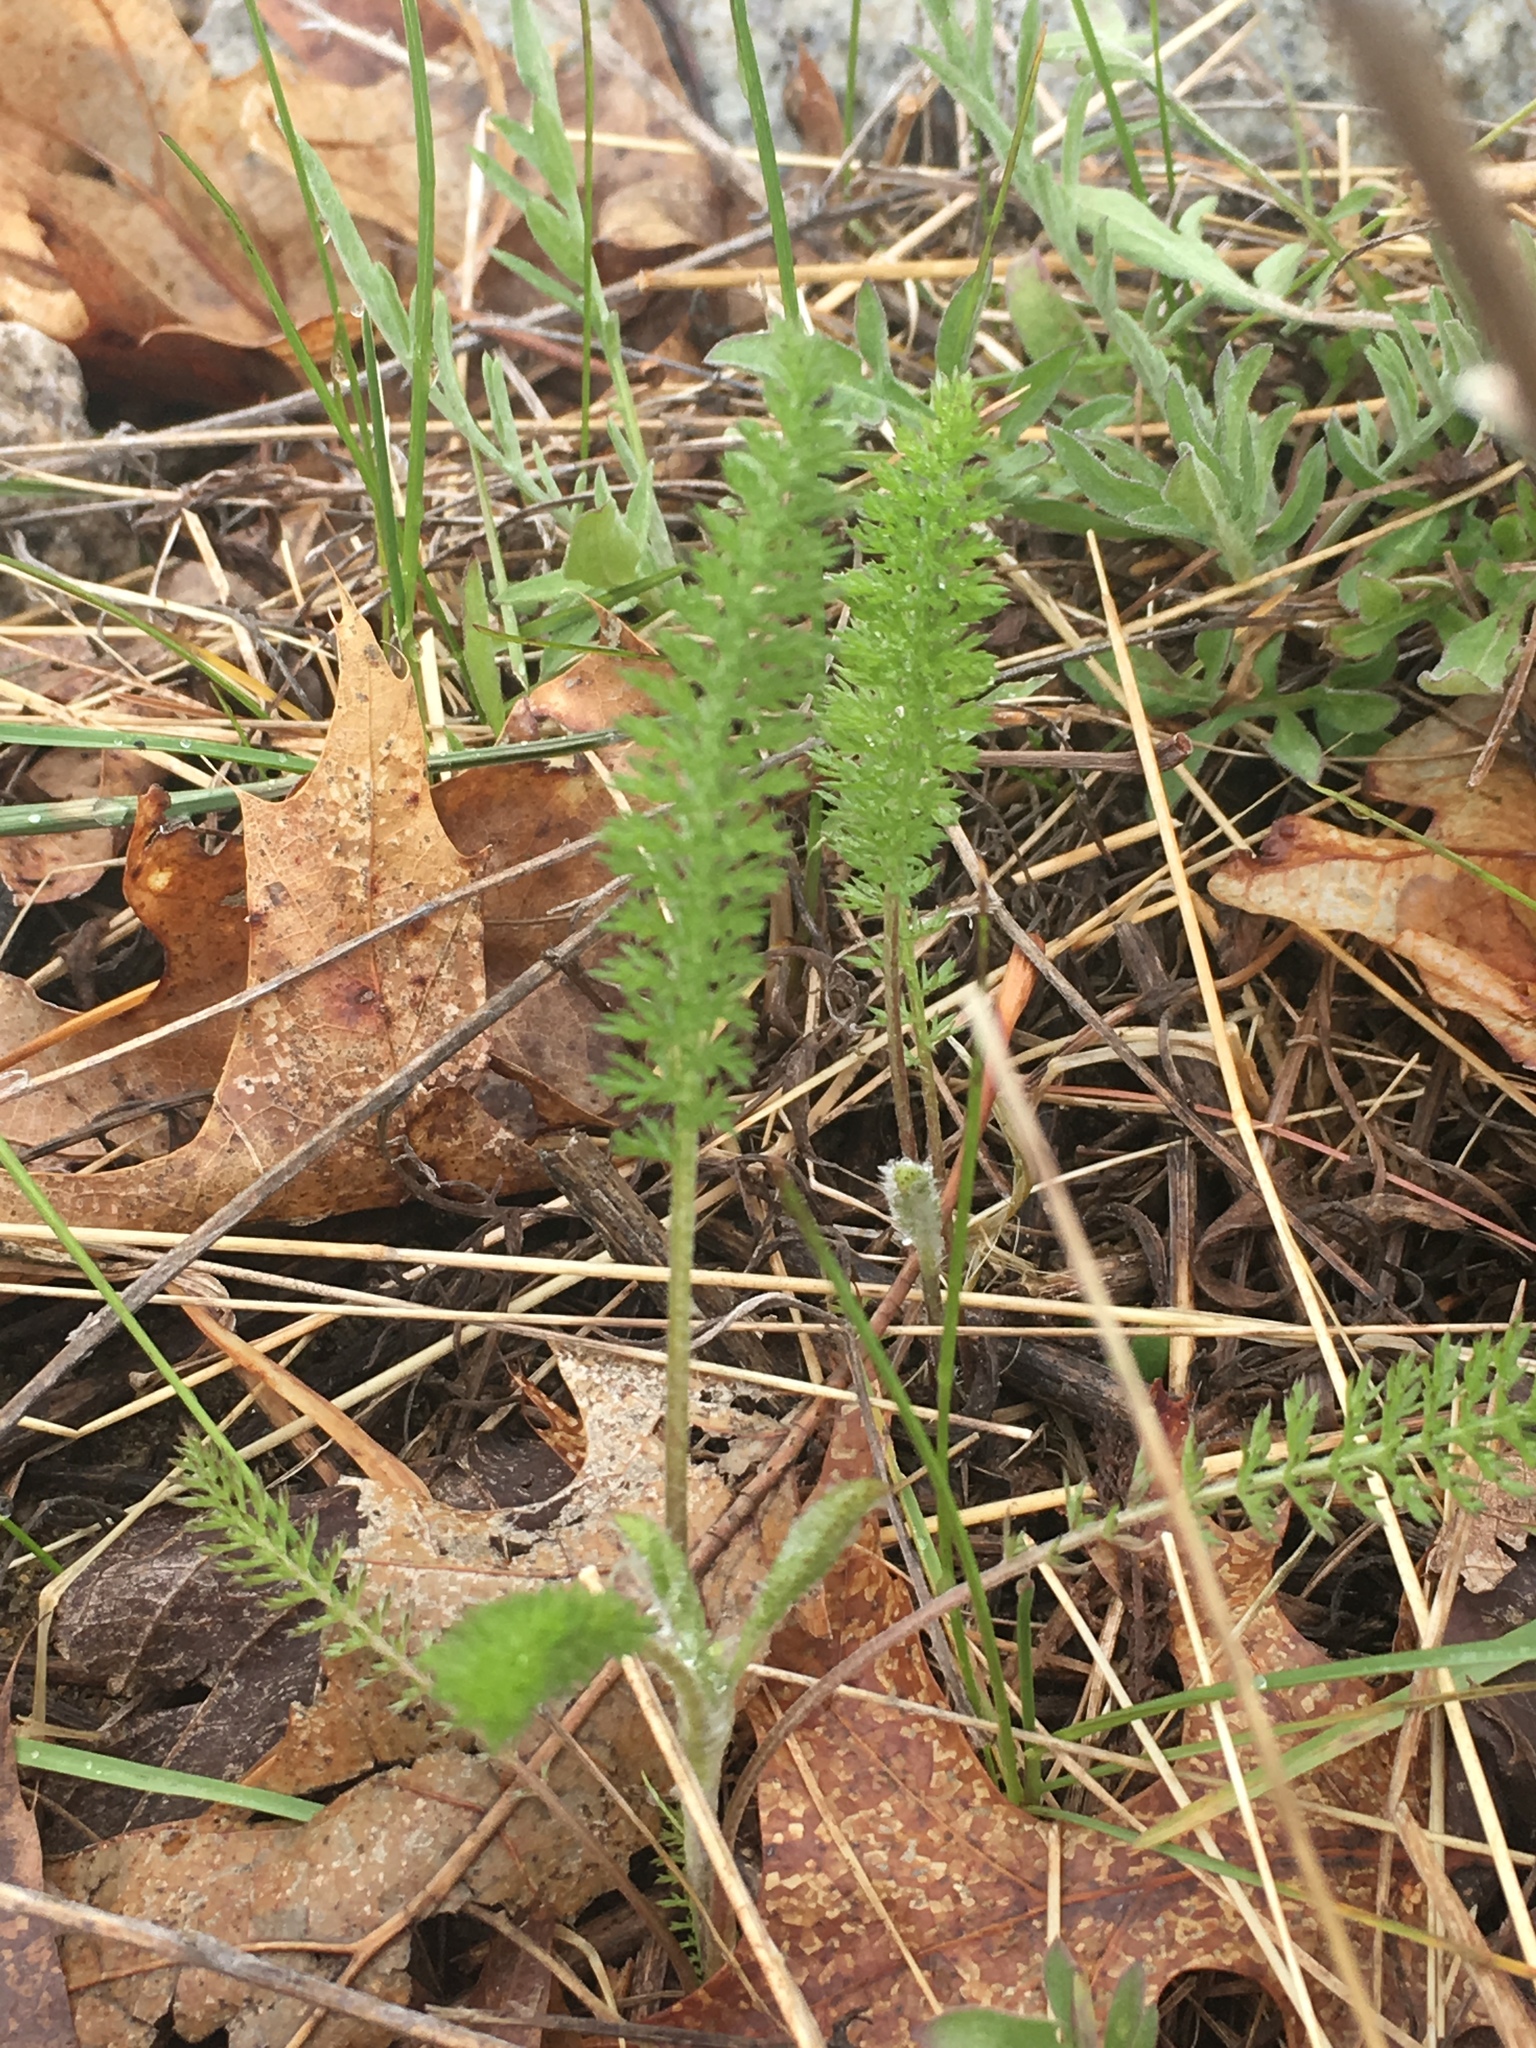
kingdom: Plantae
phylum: Tracheophyta
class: Magnoliopsida
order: Asterales
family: Asteraceae
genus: Achillea
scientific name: Achillea millefolium
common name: Yarrow
